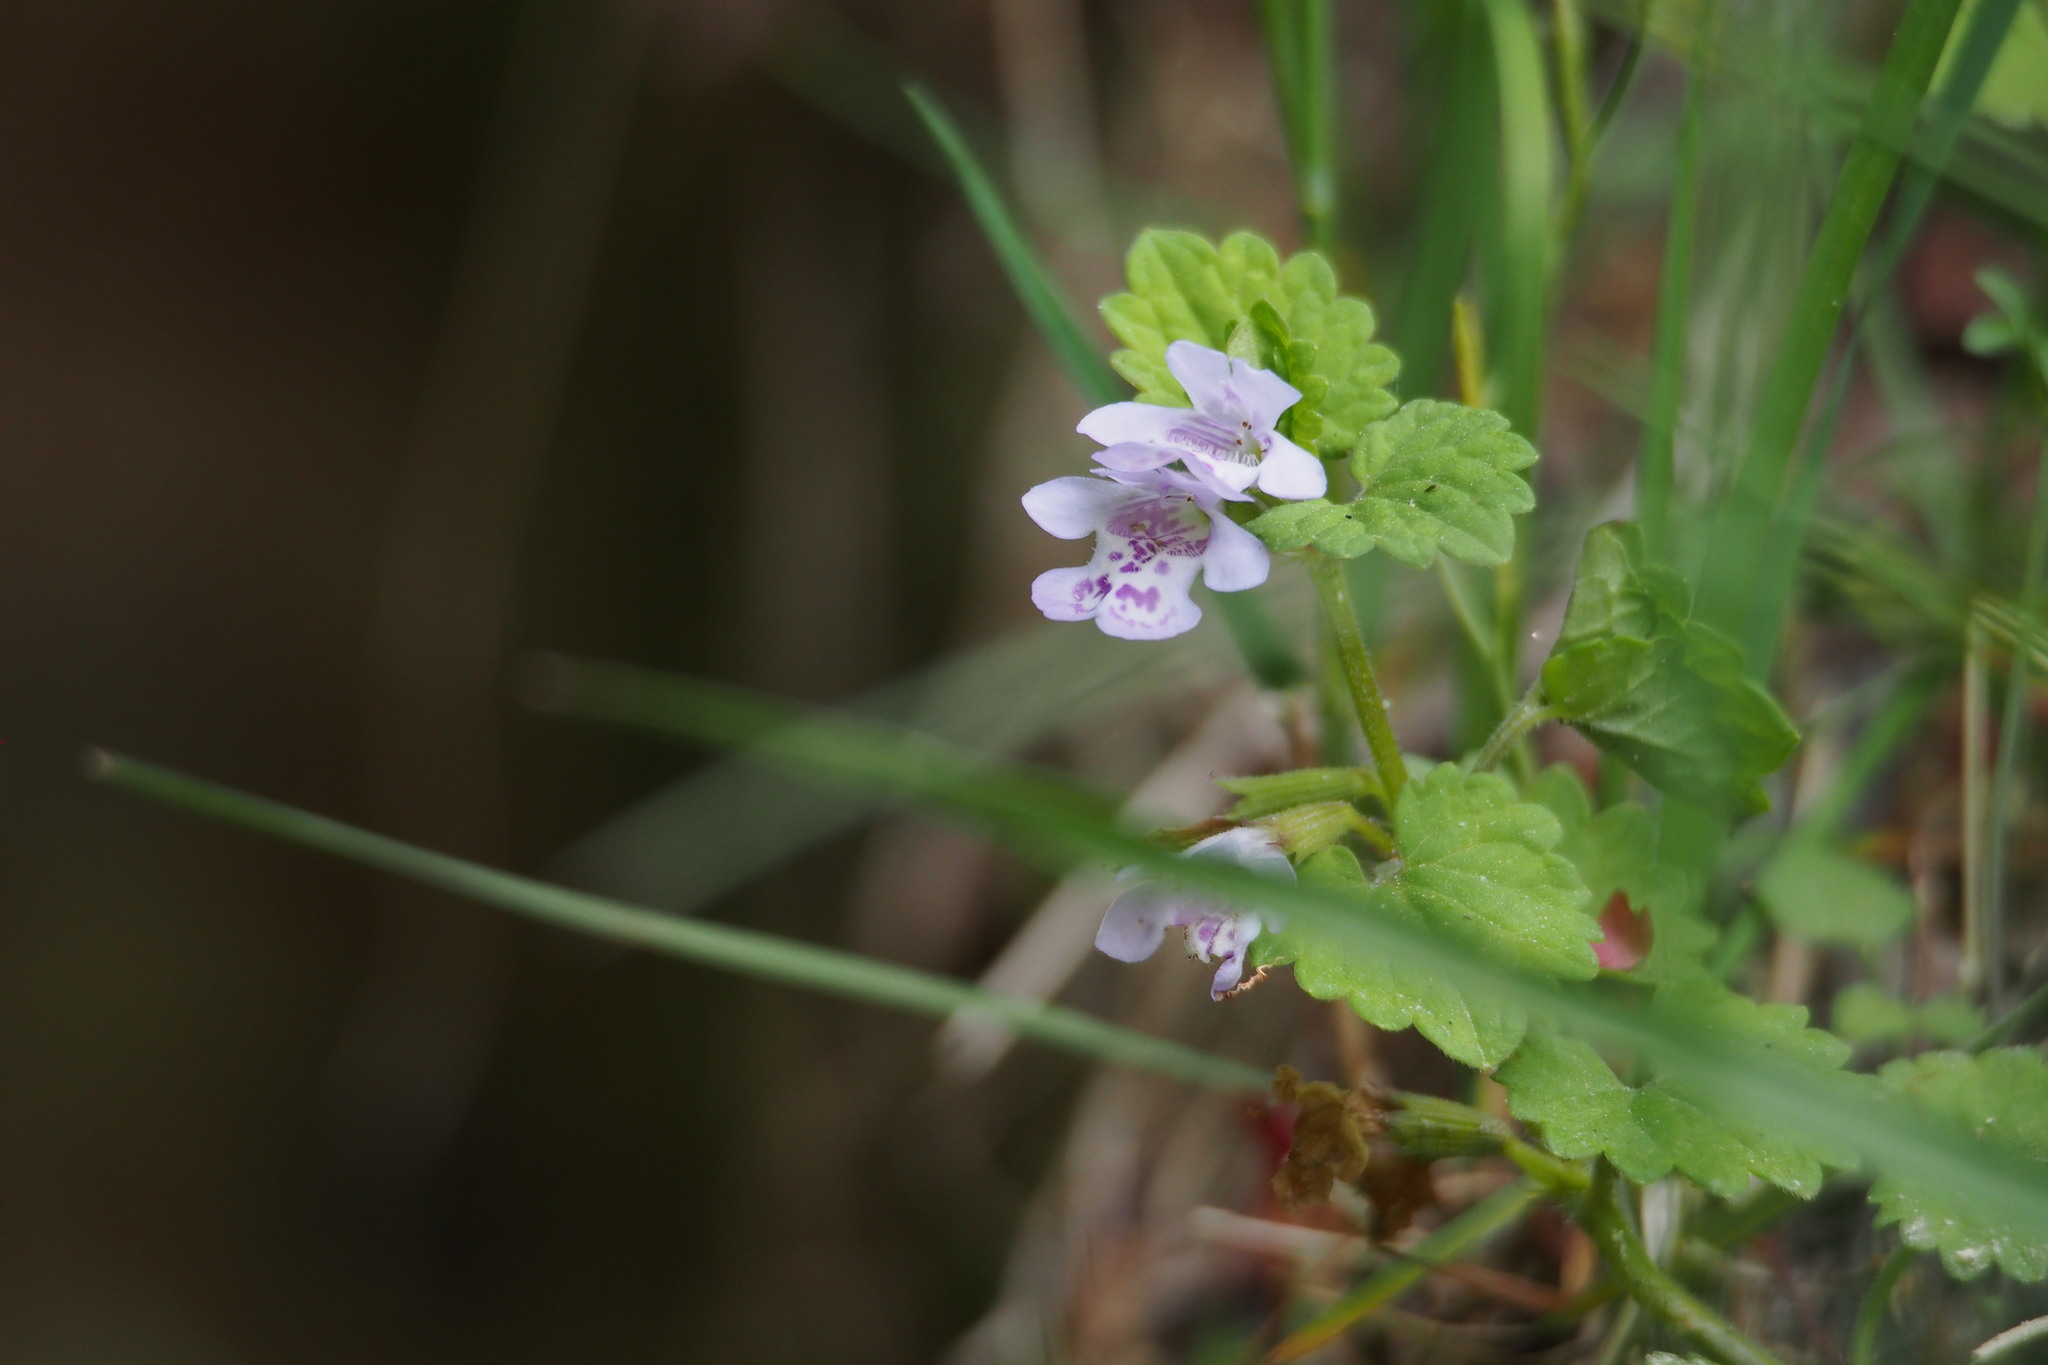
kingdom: Plantae
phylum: Tracheophyta
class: Magnoliopsida
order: Lamiales
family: Lamiaceae
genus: Glechoma
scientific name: Glechoma grandis
